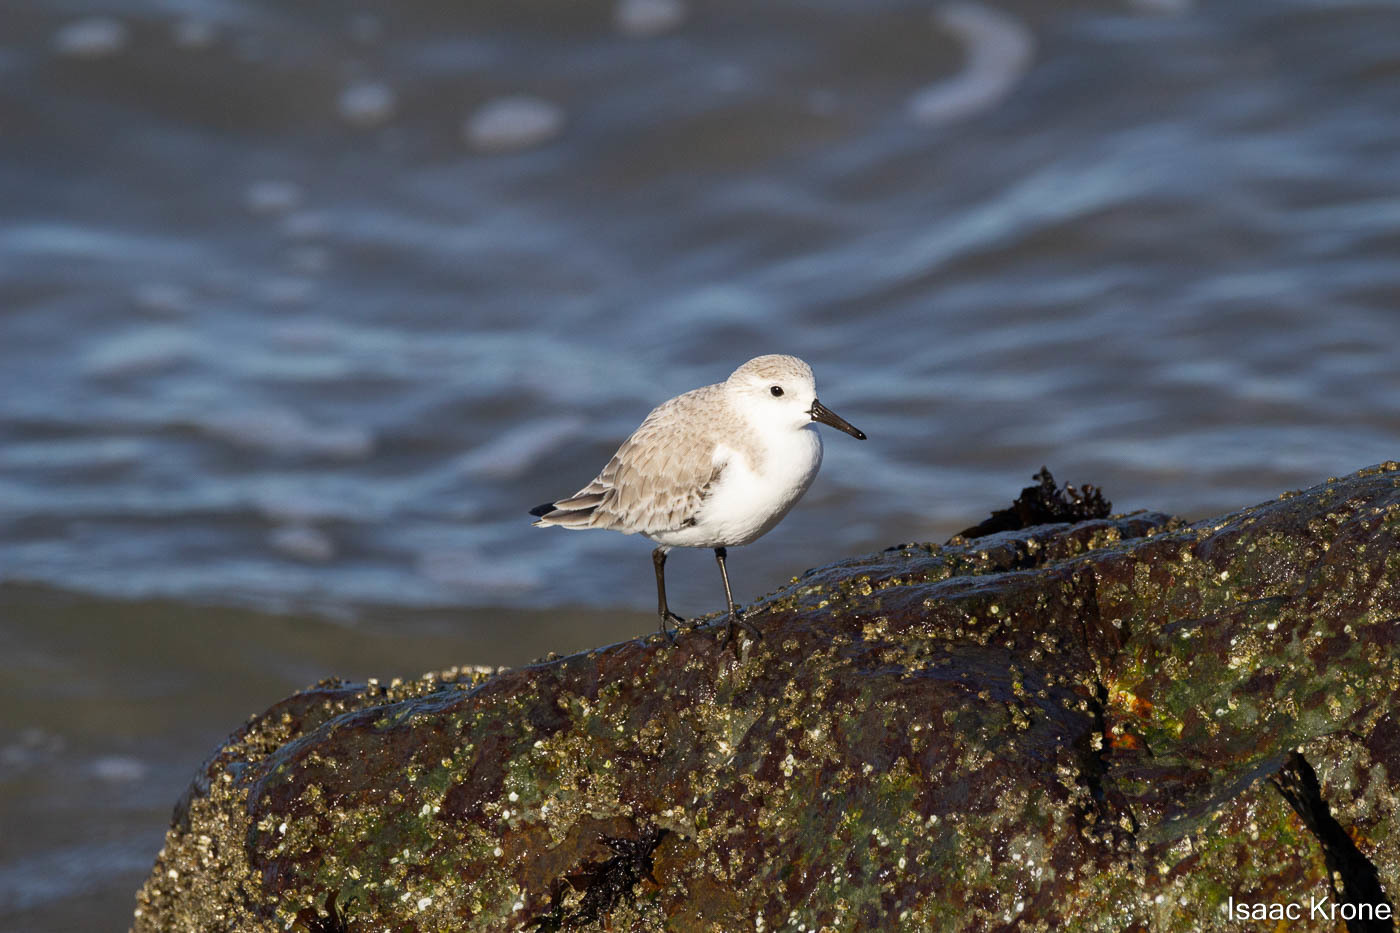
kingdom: Animalia
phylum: Chordata
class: Aves
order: Charadriiformes
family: Scolopacidae
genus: Calidris
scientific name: Calidris alba
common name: Sanderling
